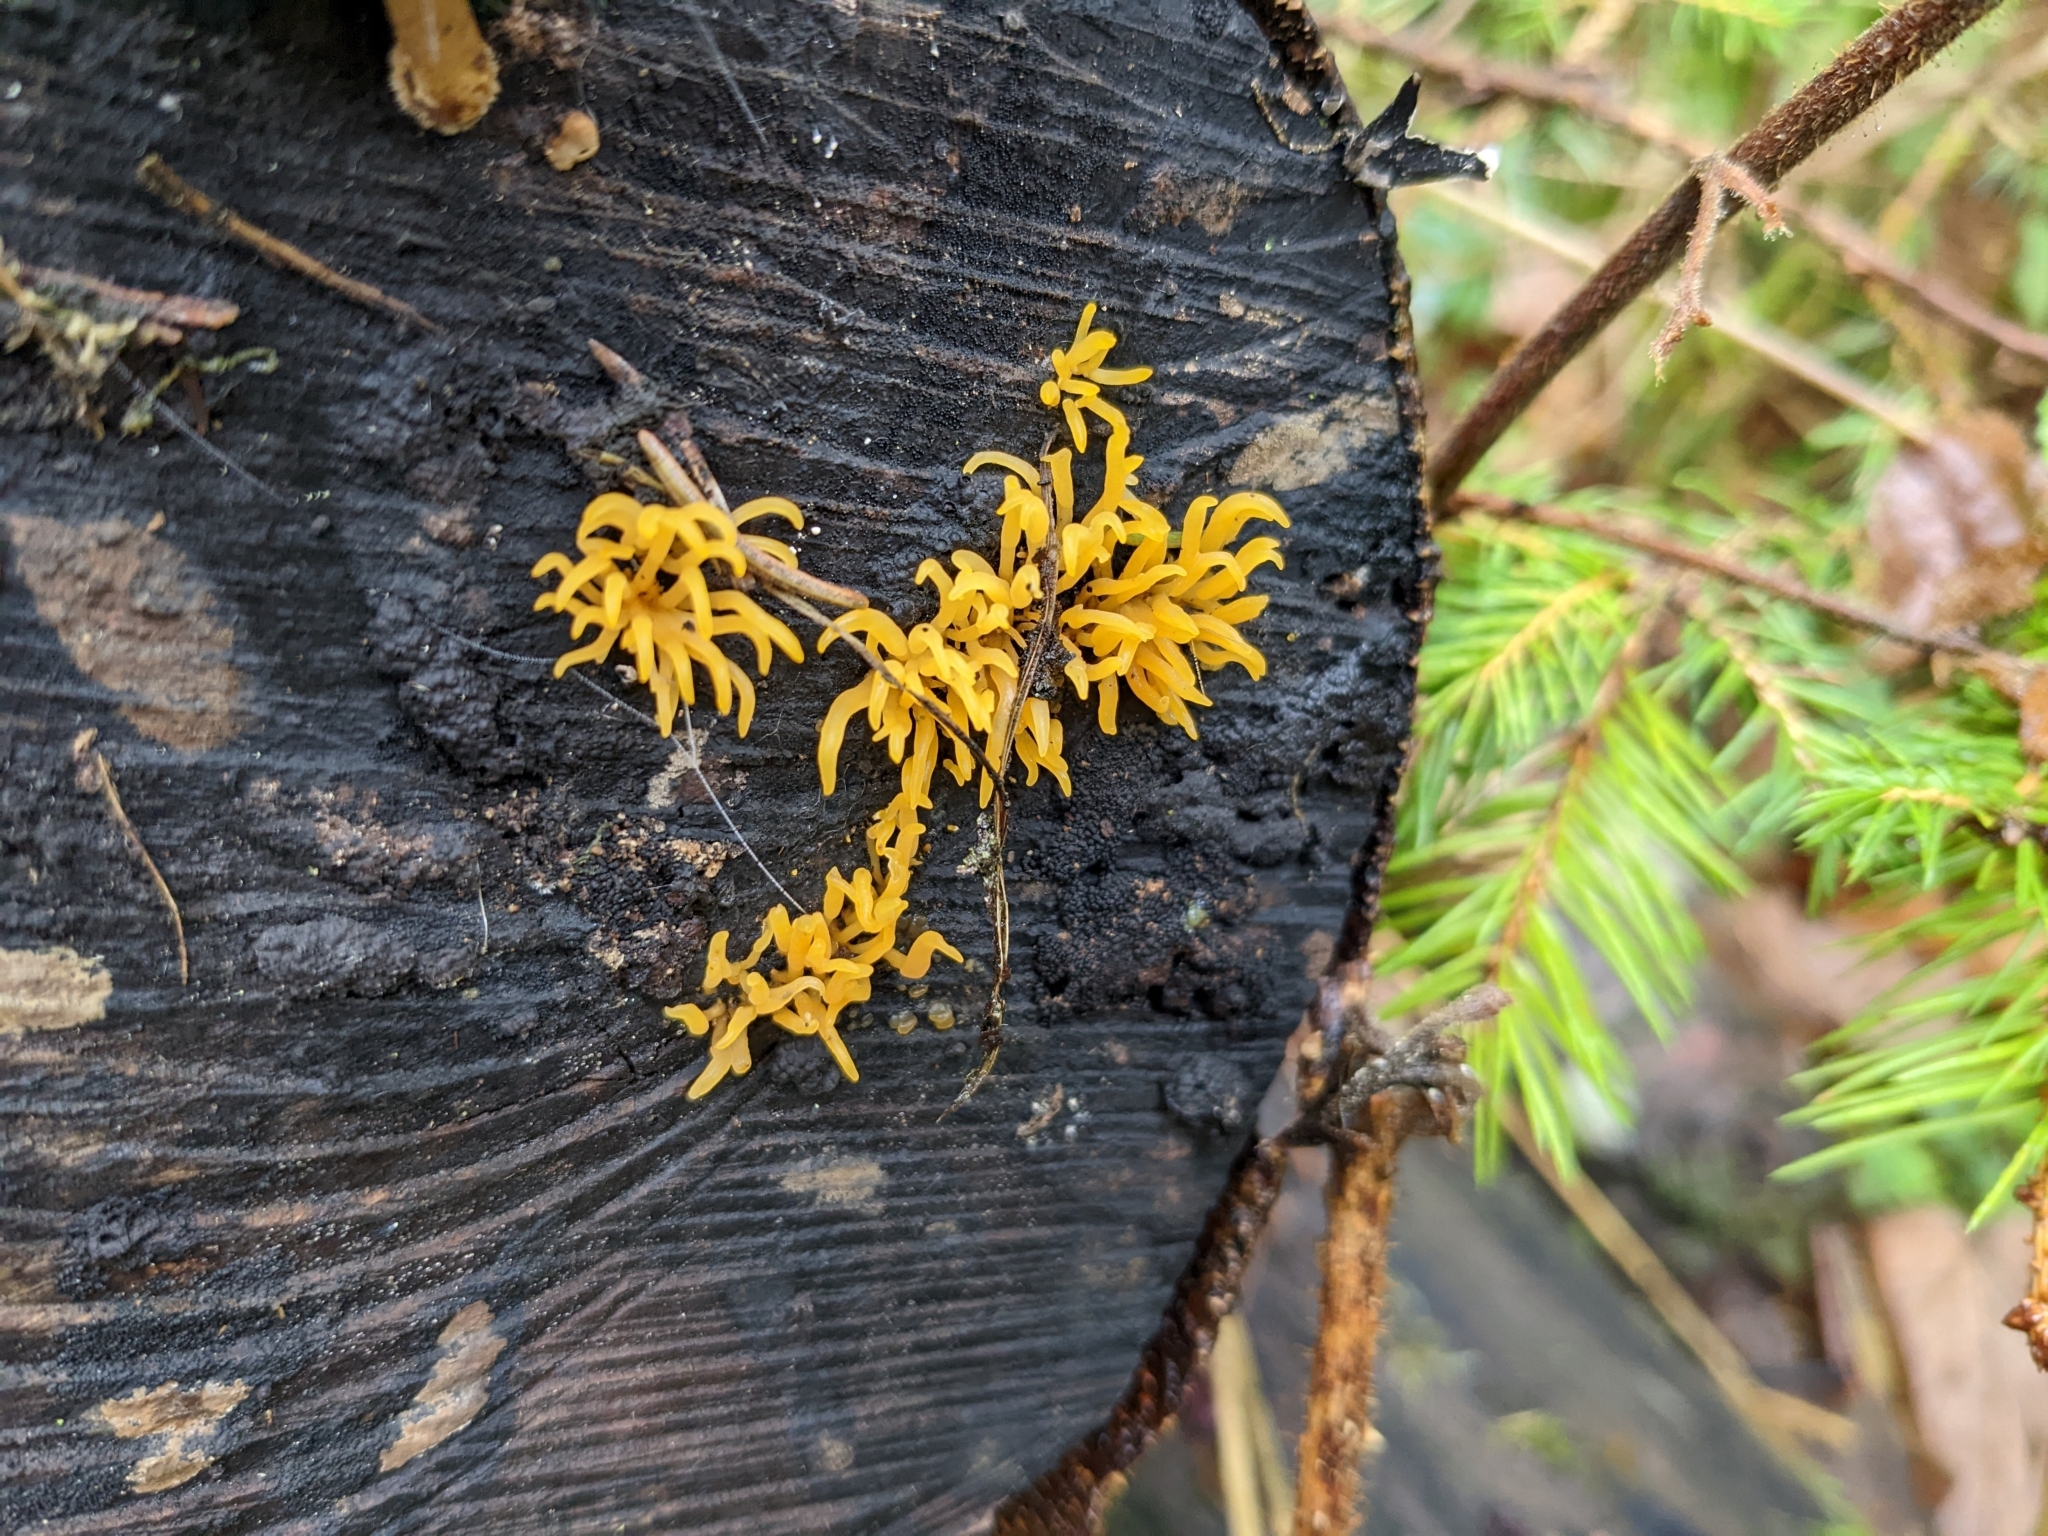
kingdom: Fungi
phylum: Basidiomycota
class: Dacrymycetes
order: Dacrymycetales
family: Dacrymycetaceae
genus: Calocera
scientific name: Calocera cornea
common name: Small stagshorn
